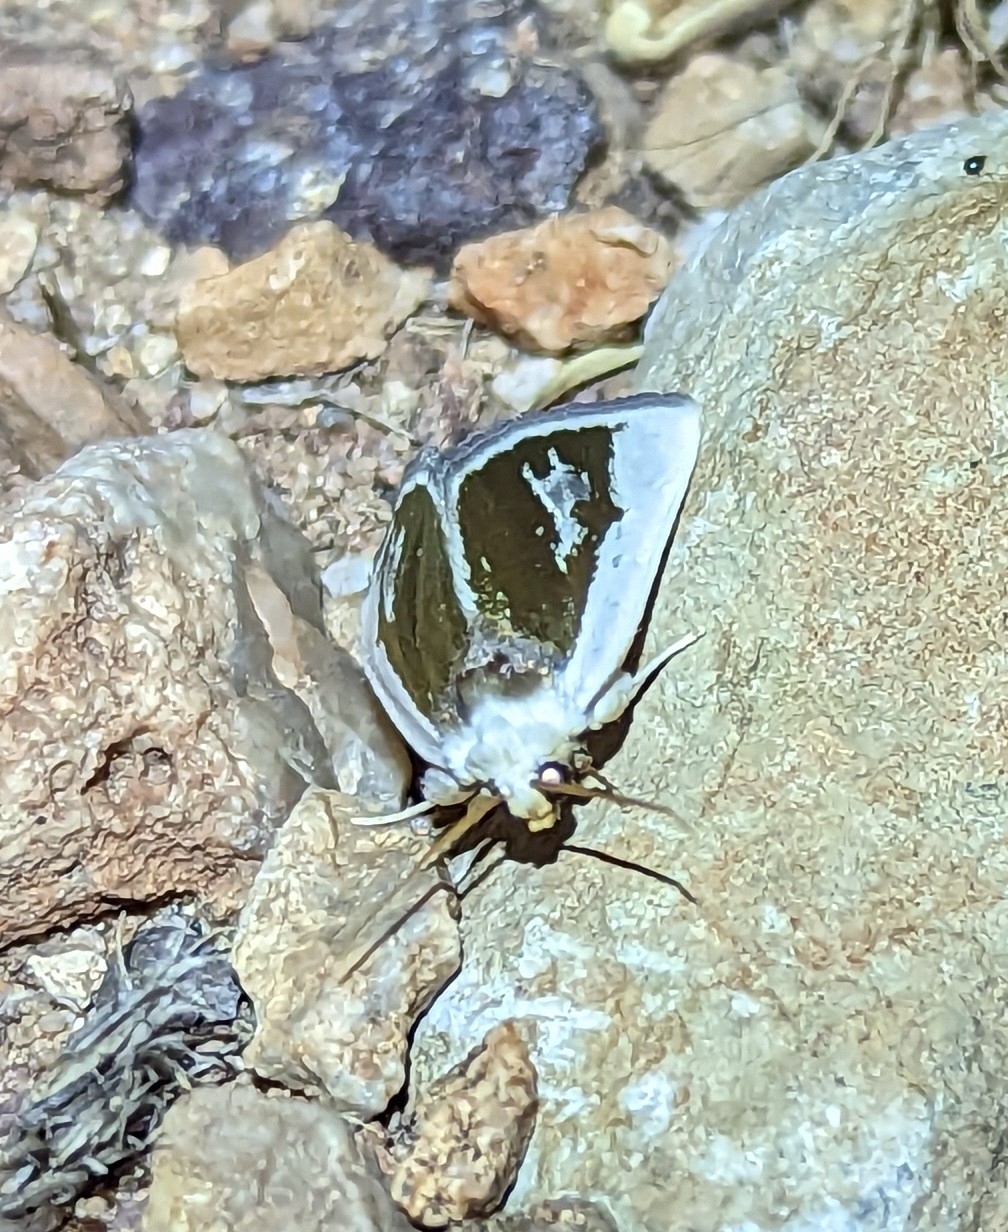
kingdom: Animalia
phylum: Arthropoda
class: Insecta
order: Lepidoptera
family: Noctuidae
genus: Neumoegenia
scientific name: Neumoegenia poetica
